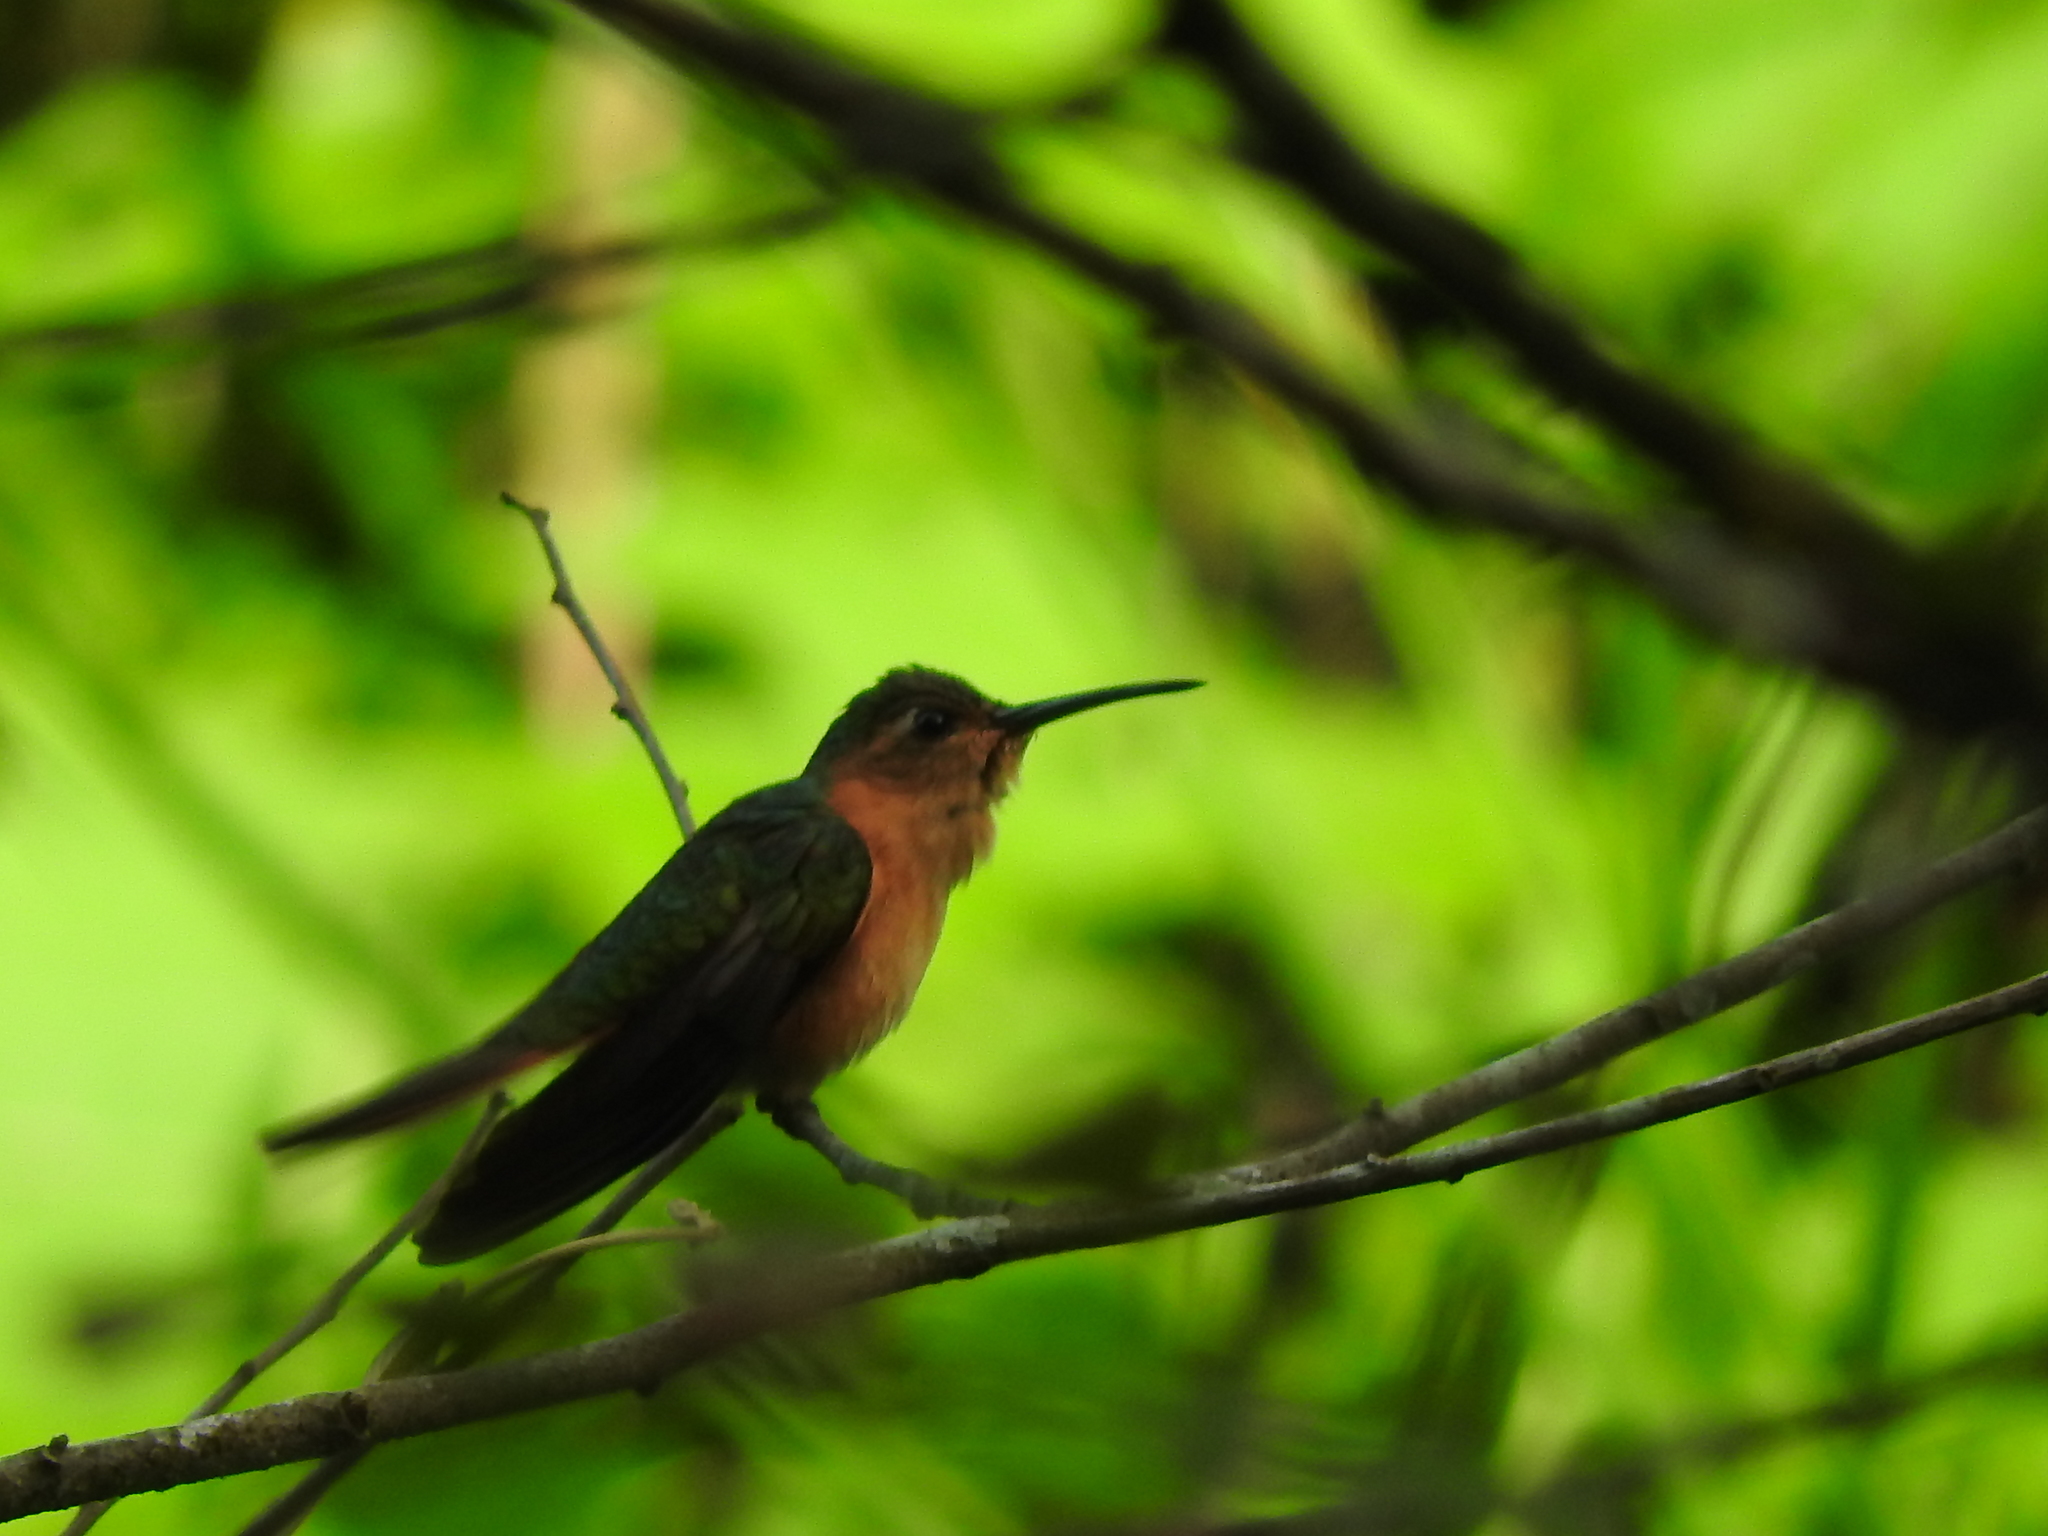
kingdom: Animalia
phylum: Chordata
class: Aves
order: Apodiformes
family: Trochilidae
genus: Pampa
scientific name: Pampa rufa
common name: Rufous sabrewing
